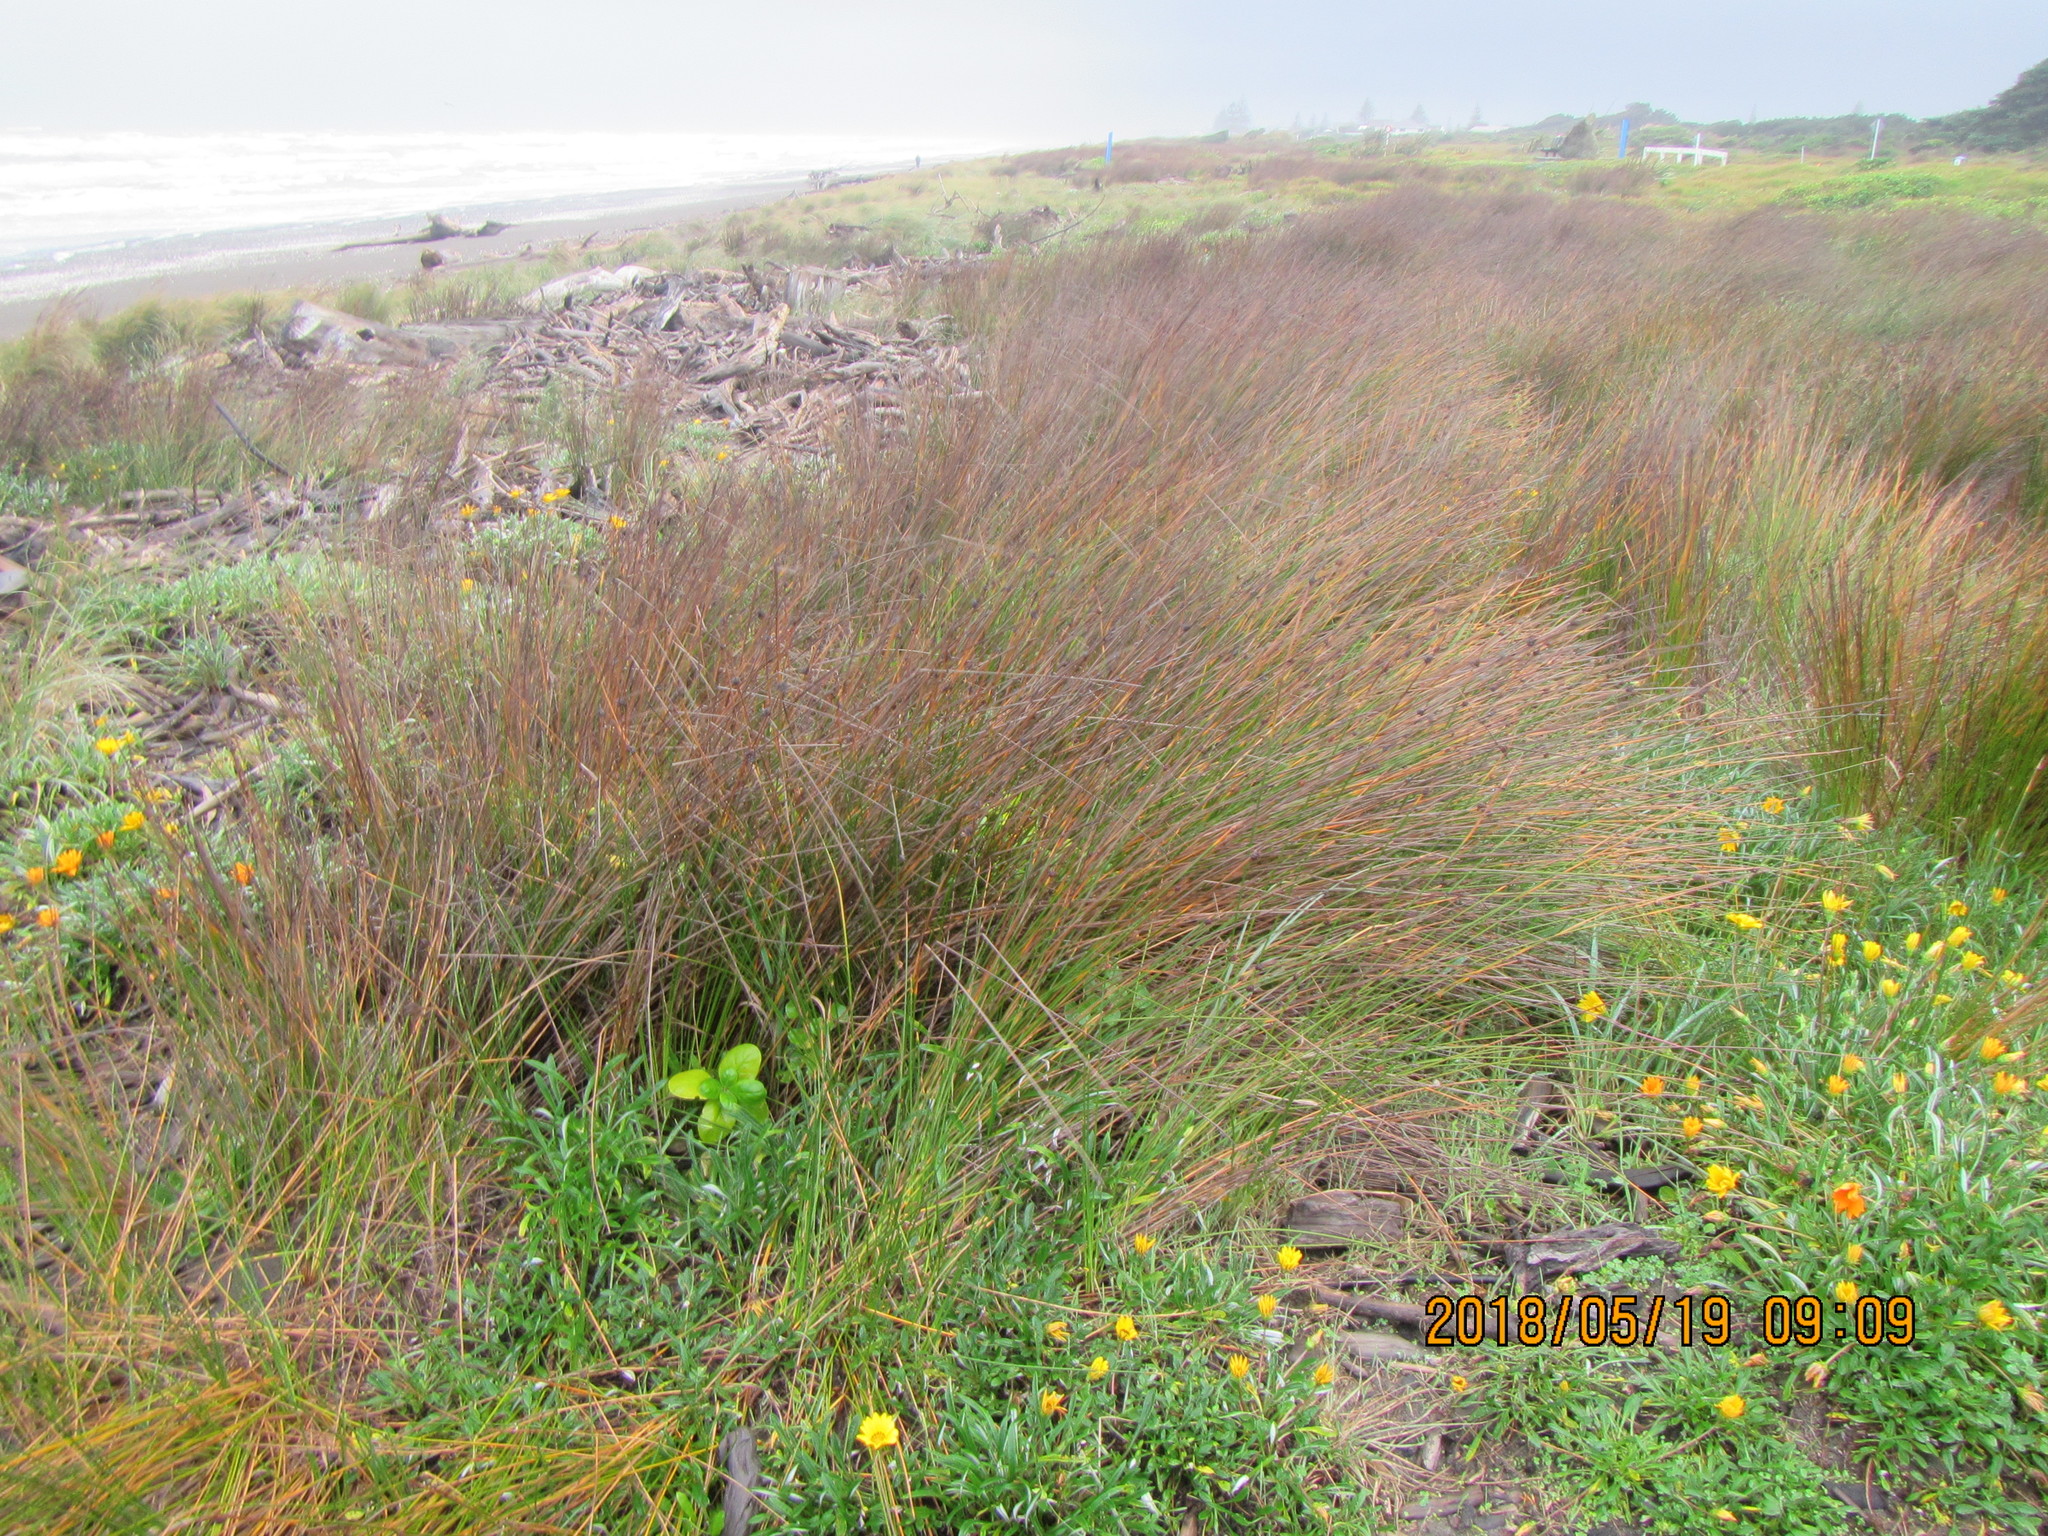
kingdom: Plantae
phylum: Tracheophyta
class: Liliopsida
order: Poales
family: Cyperaceae
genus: Ficinia
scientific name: Ficinia nodosa
